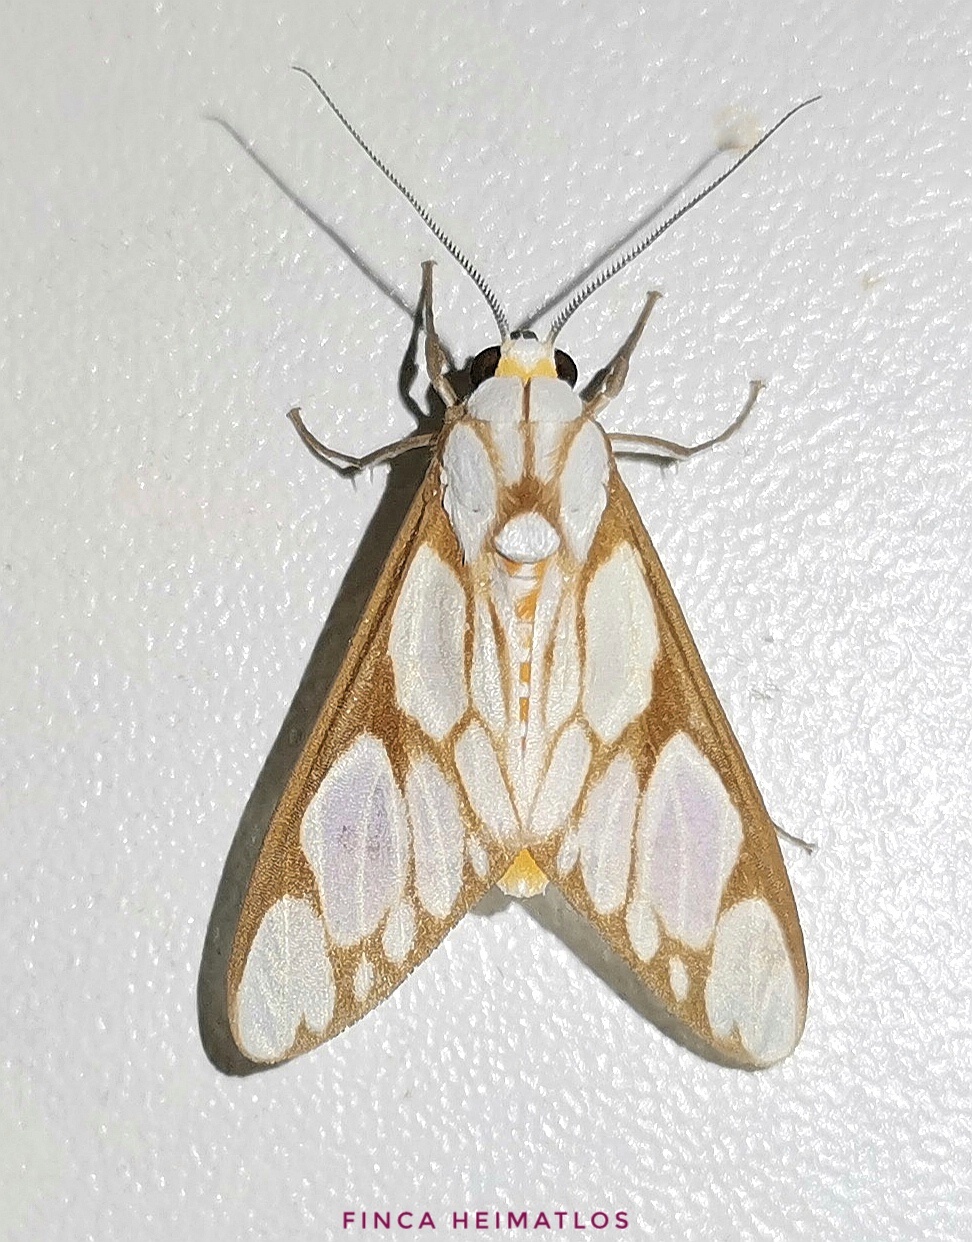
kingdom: Animalia
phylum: Arthropoda
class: Insecta
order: Lepidoptera
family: Erebidae
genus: Robinsonia
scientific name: Robinsonia sanea
